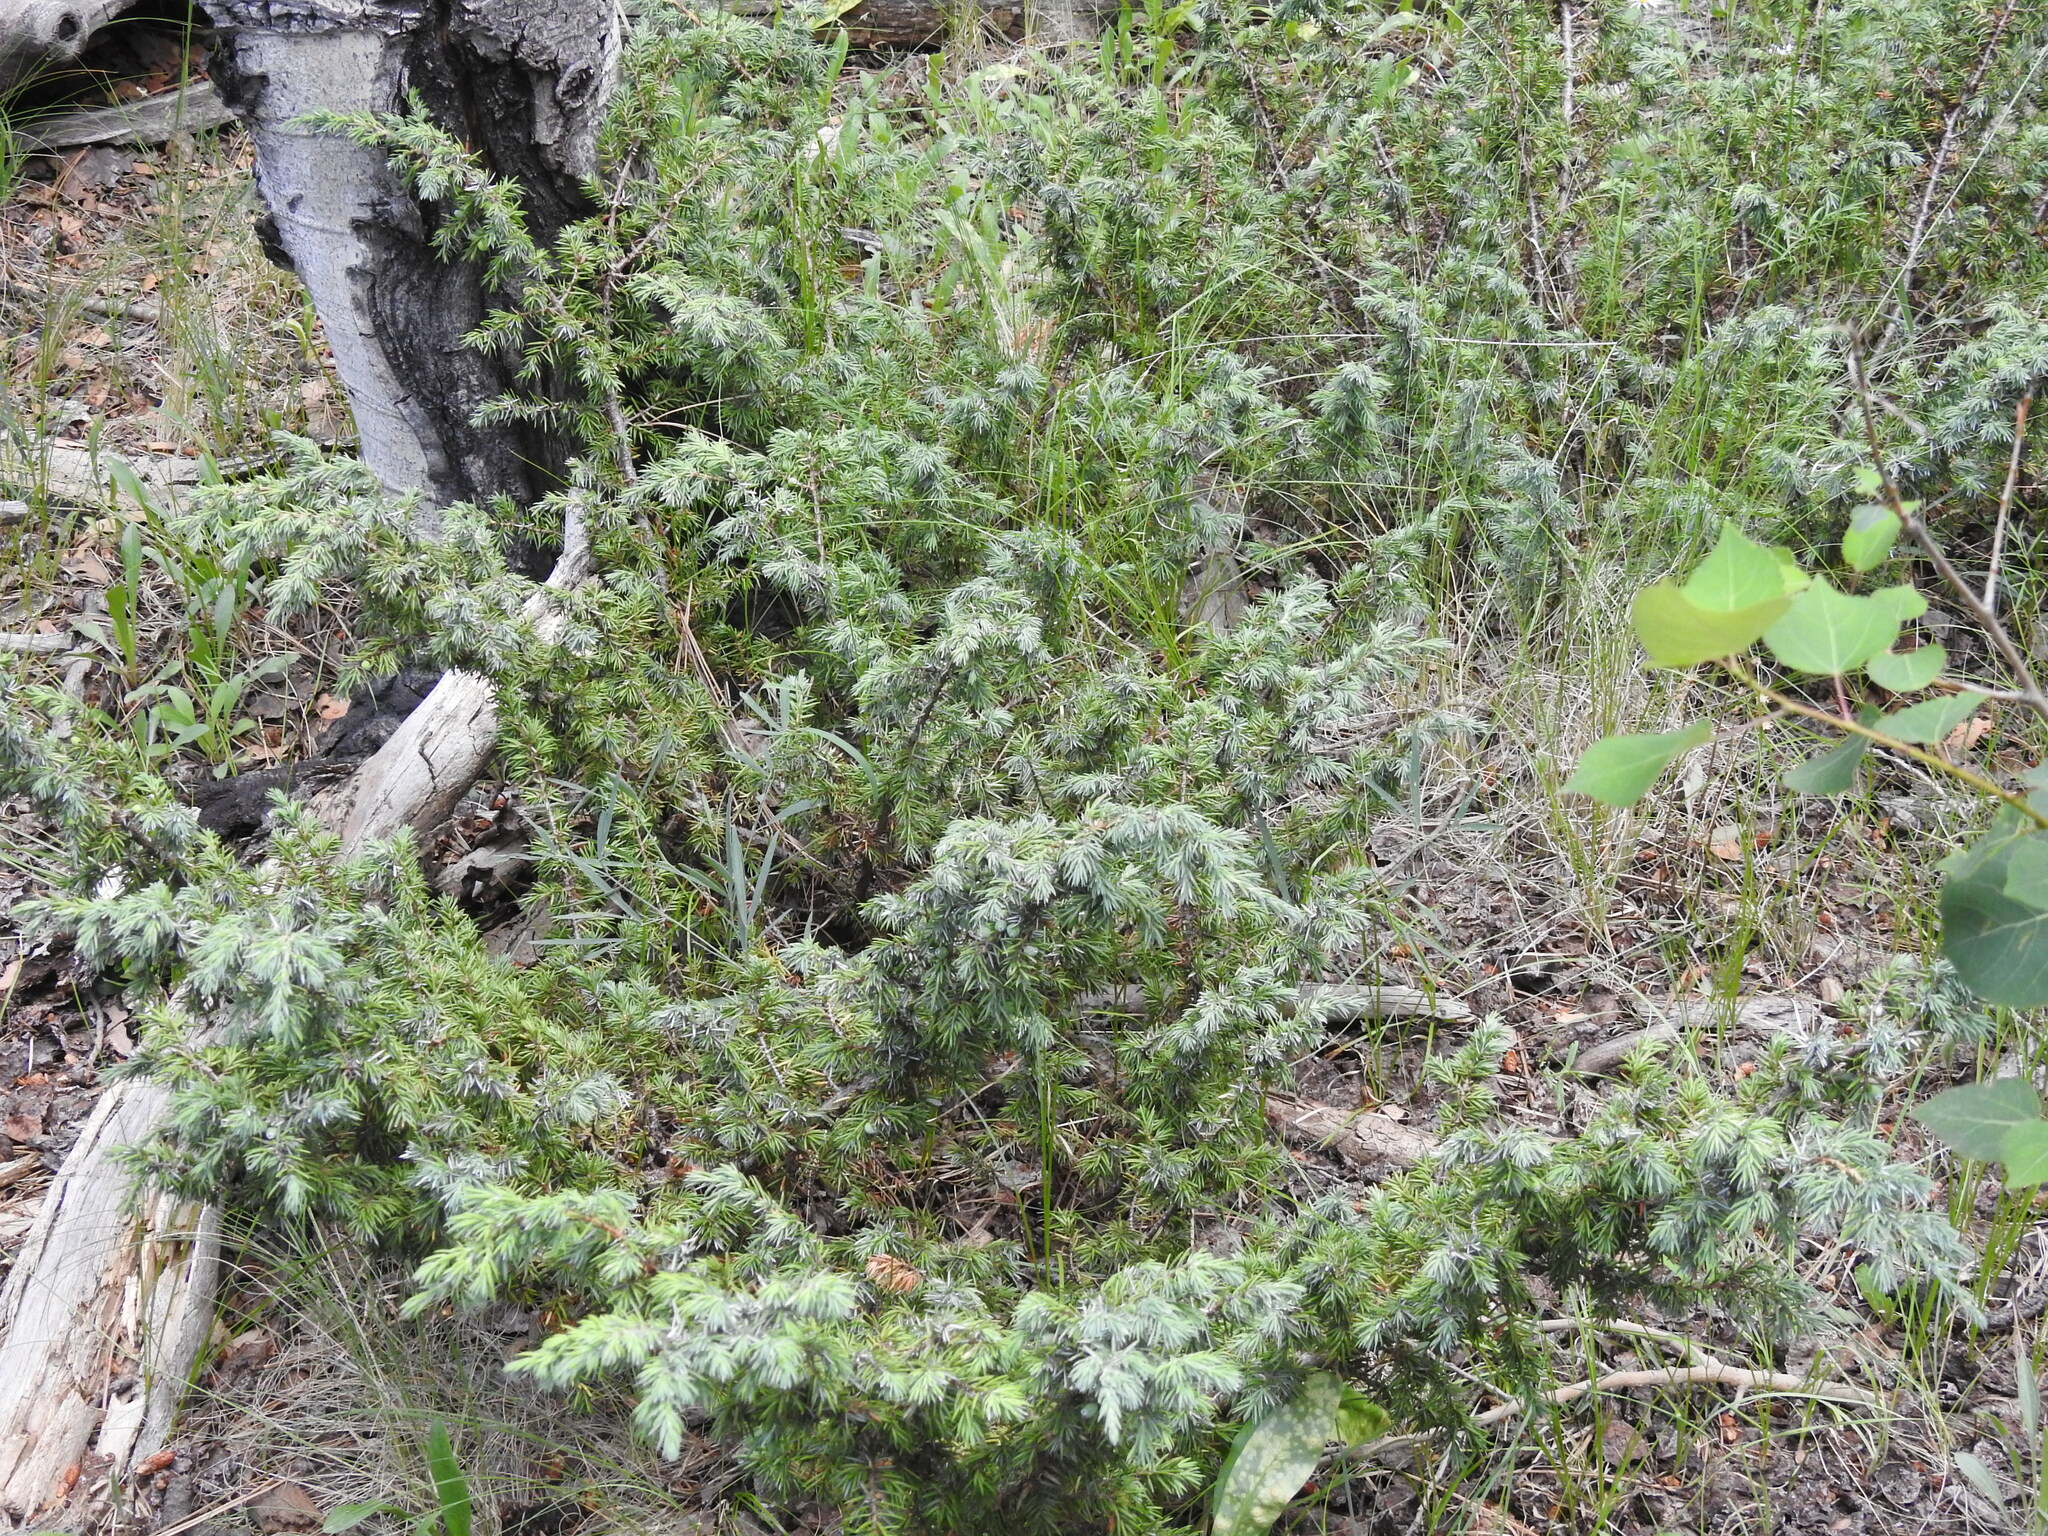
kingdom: Plantae
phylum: Tracheophyta
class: Pinopsida
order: Pinales
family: Cupressaceae
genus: Juniperus
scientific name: Juniperus communis
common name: Common juniper
